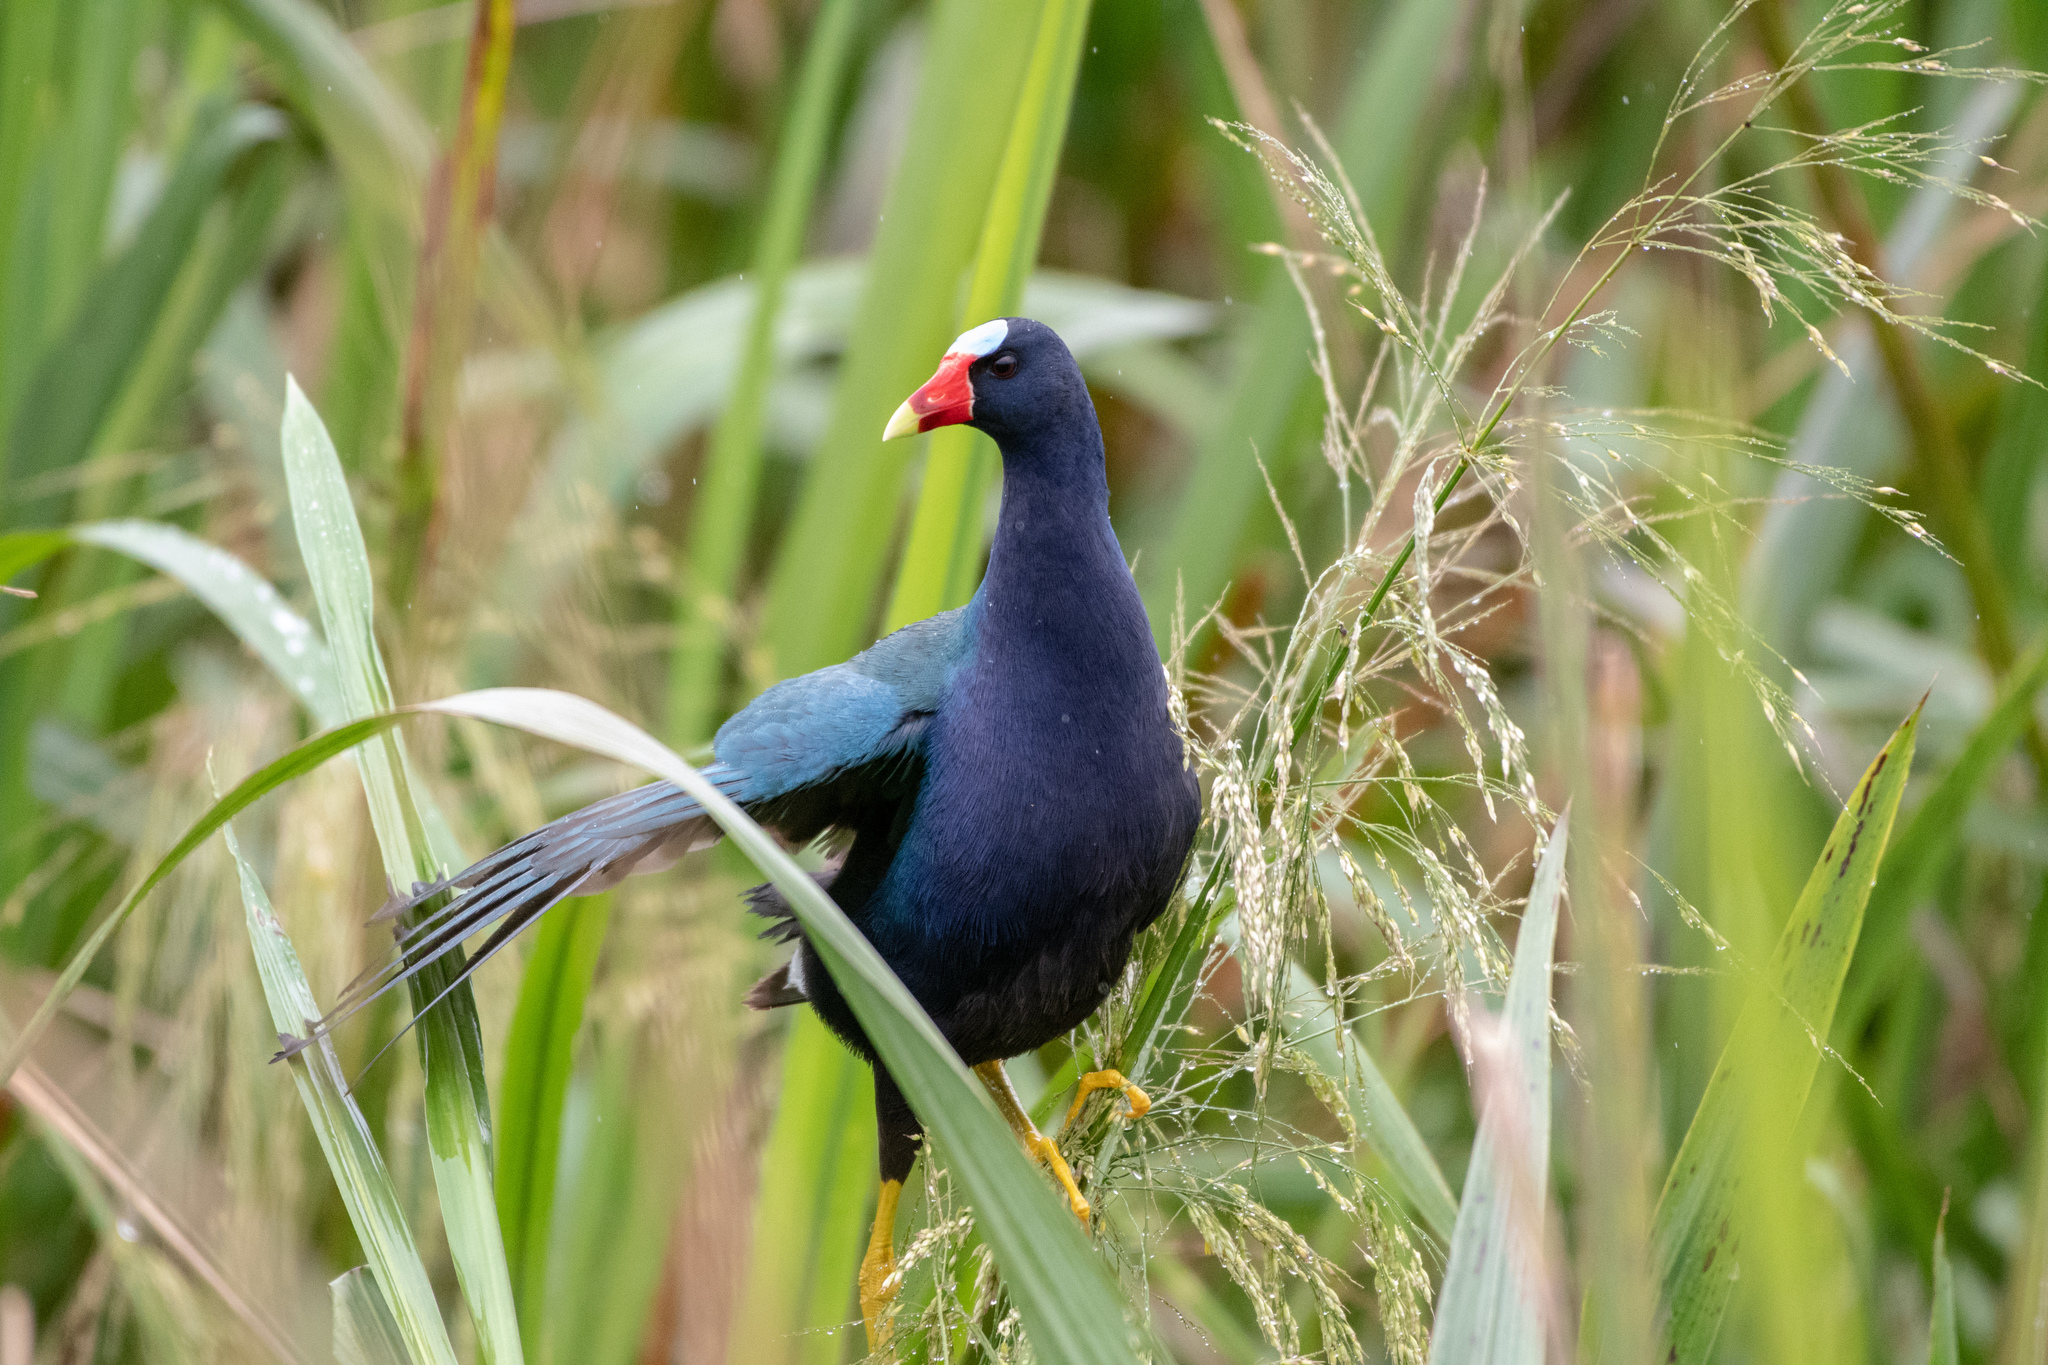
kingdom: Animalia
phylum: Chordata
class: Aves
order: Gruiformes
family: Rallidae
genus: Porphyrio
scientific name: Porphyrio martinica
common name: Purple gallinule
